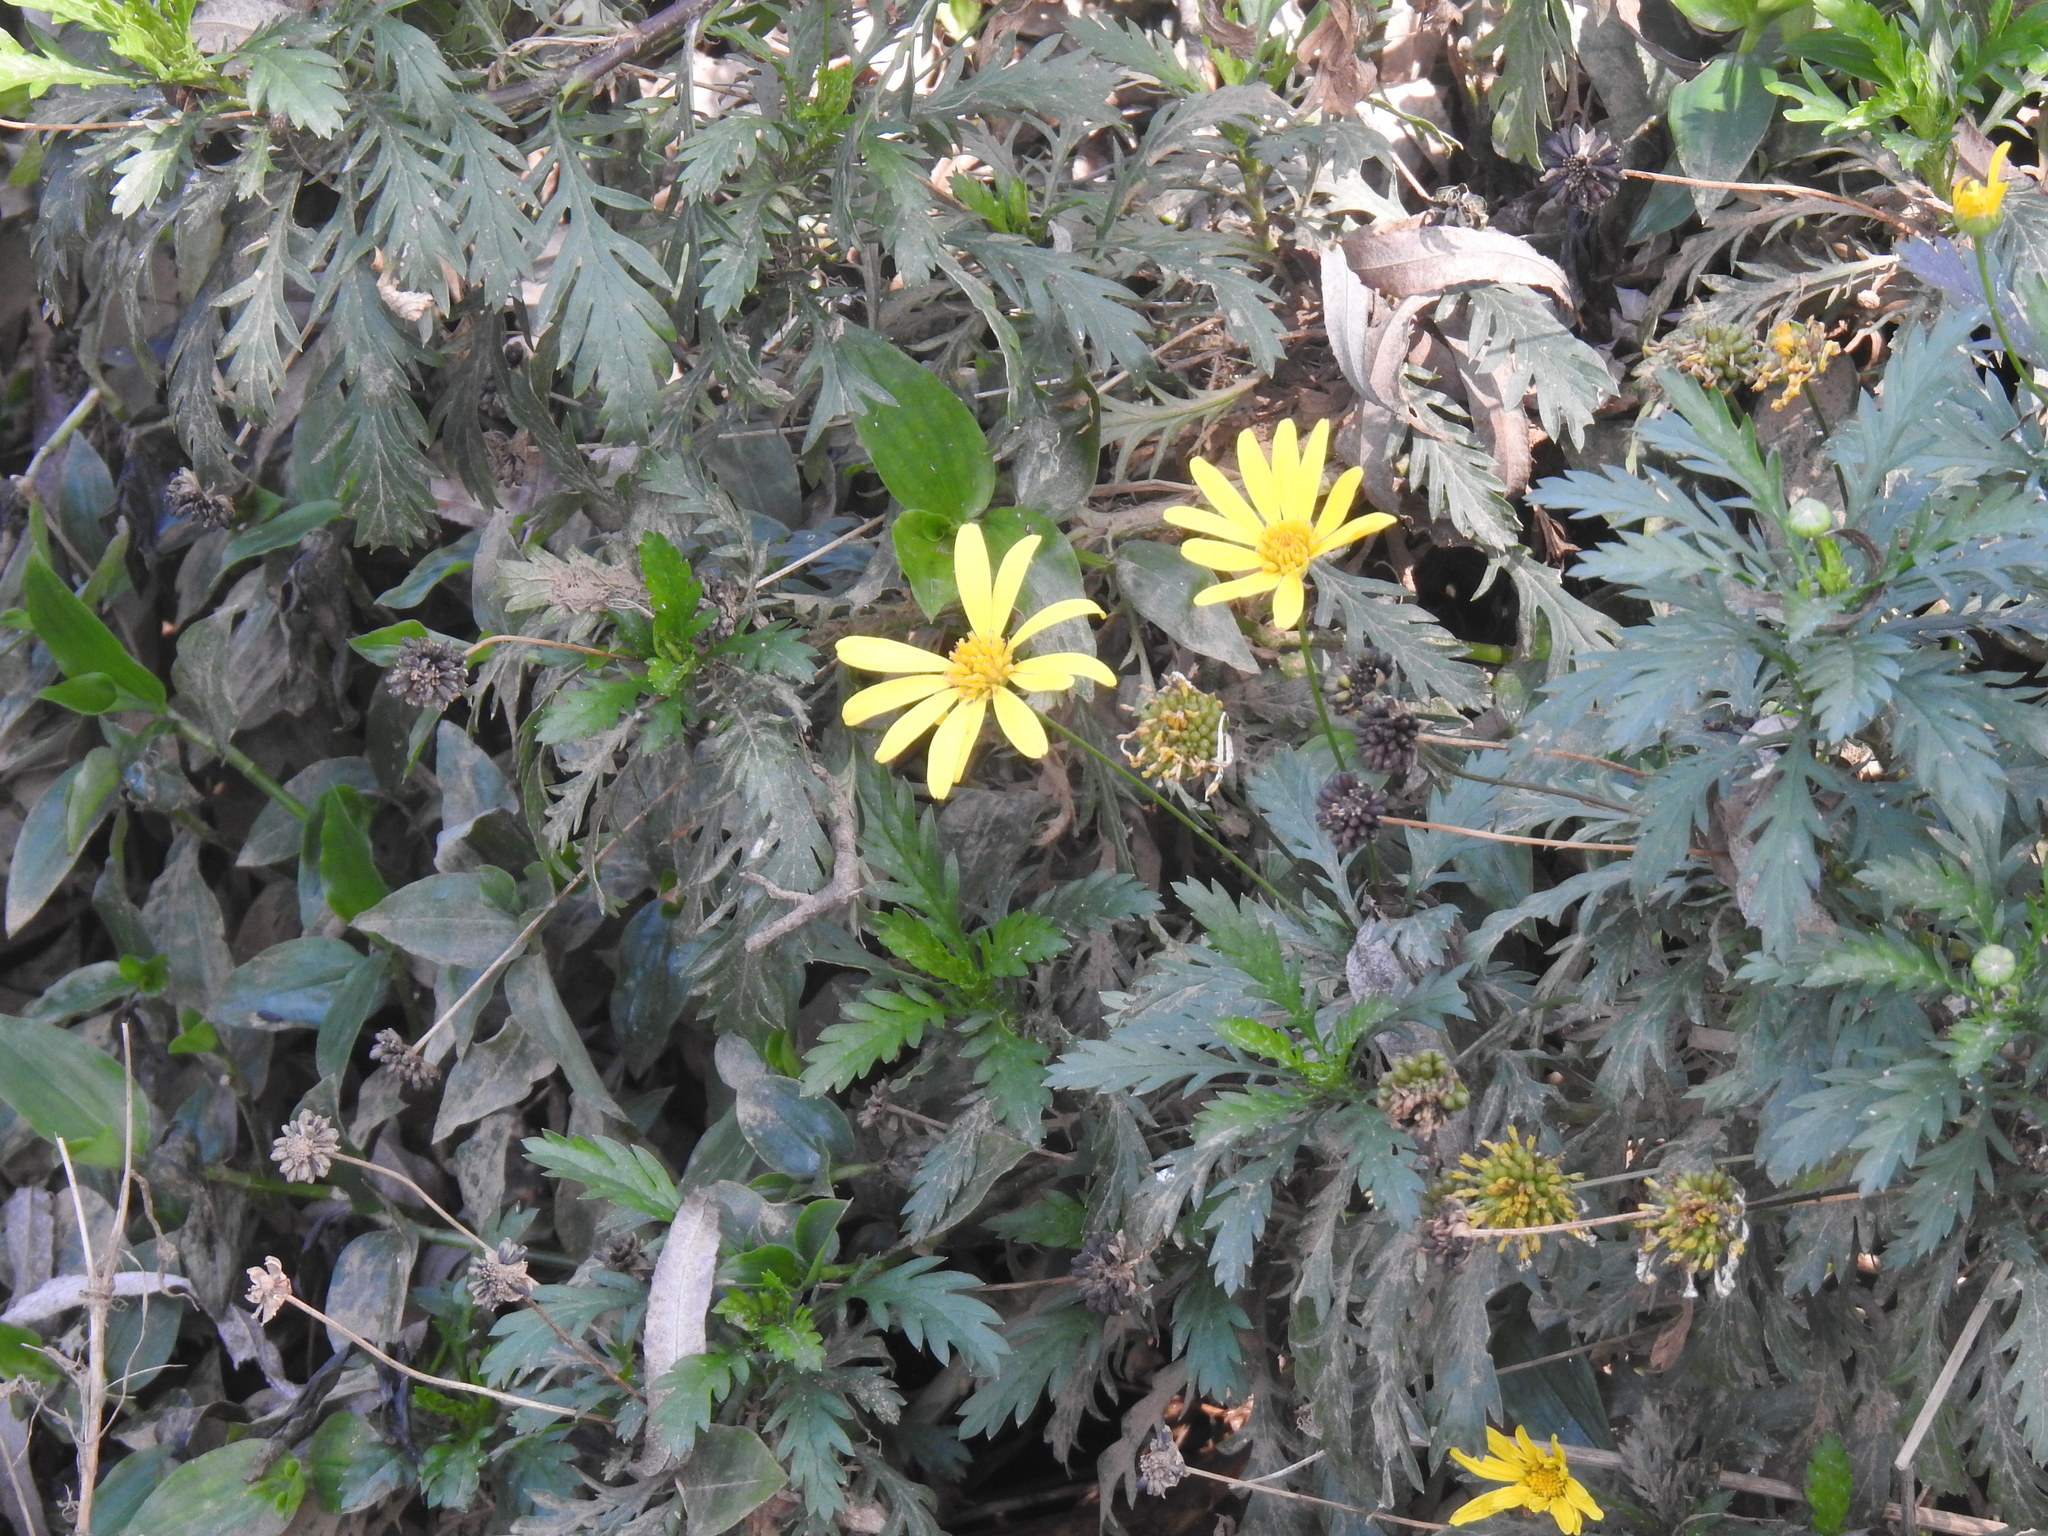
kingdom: Plantae
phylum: Tracheophyta
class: Magnoliopsida
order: Asterales
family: Asteraceae
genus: Euryops
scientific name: Euryops chrysanthemoides
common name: Bull's eye
